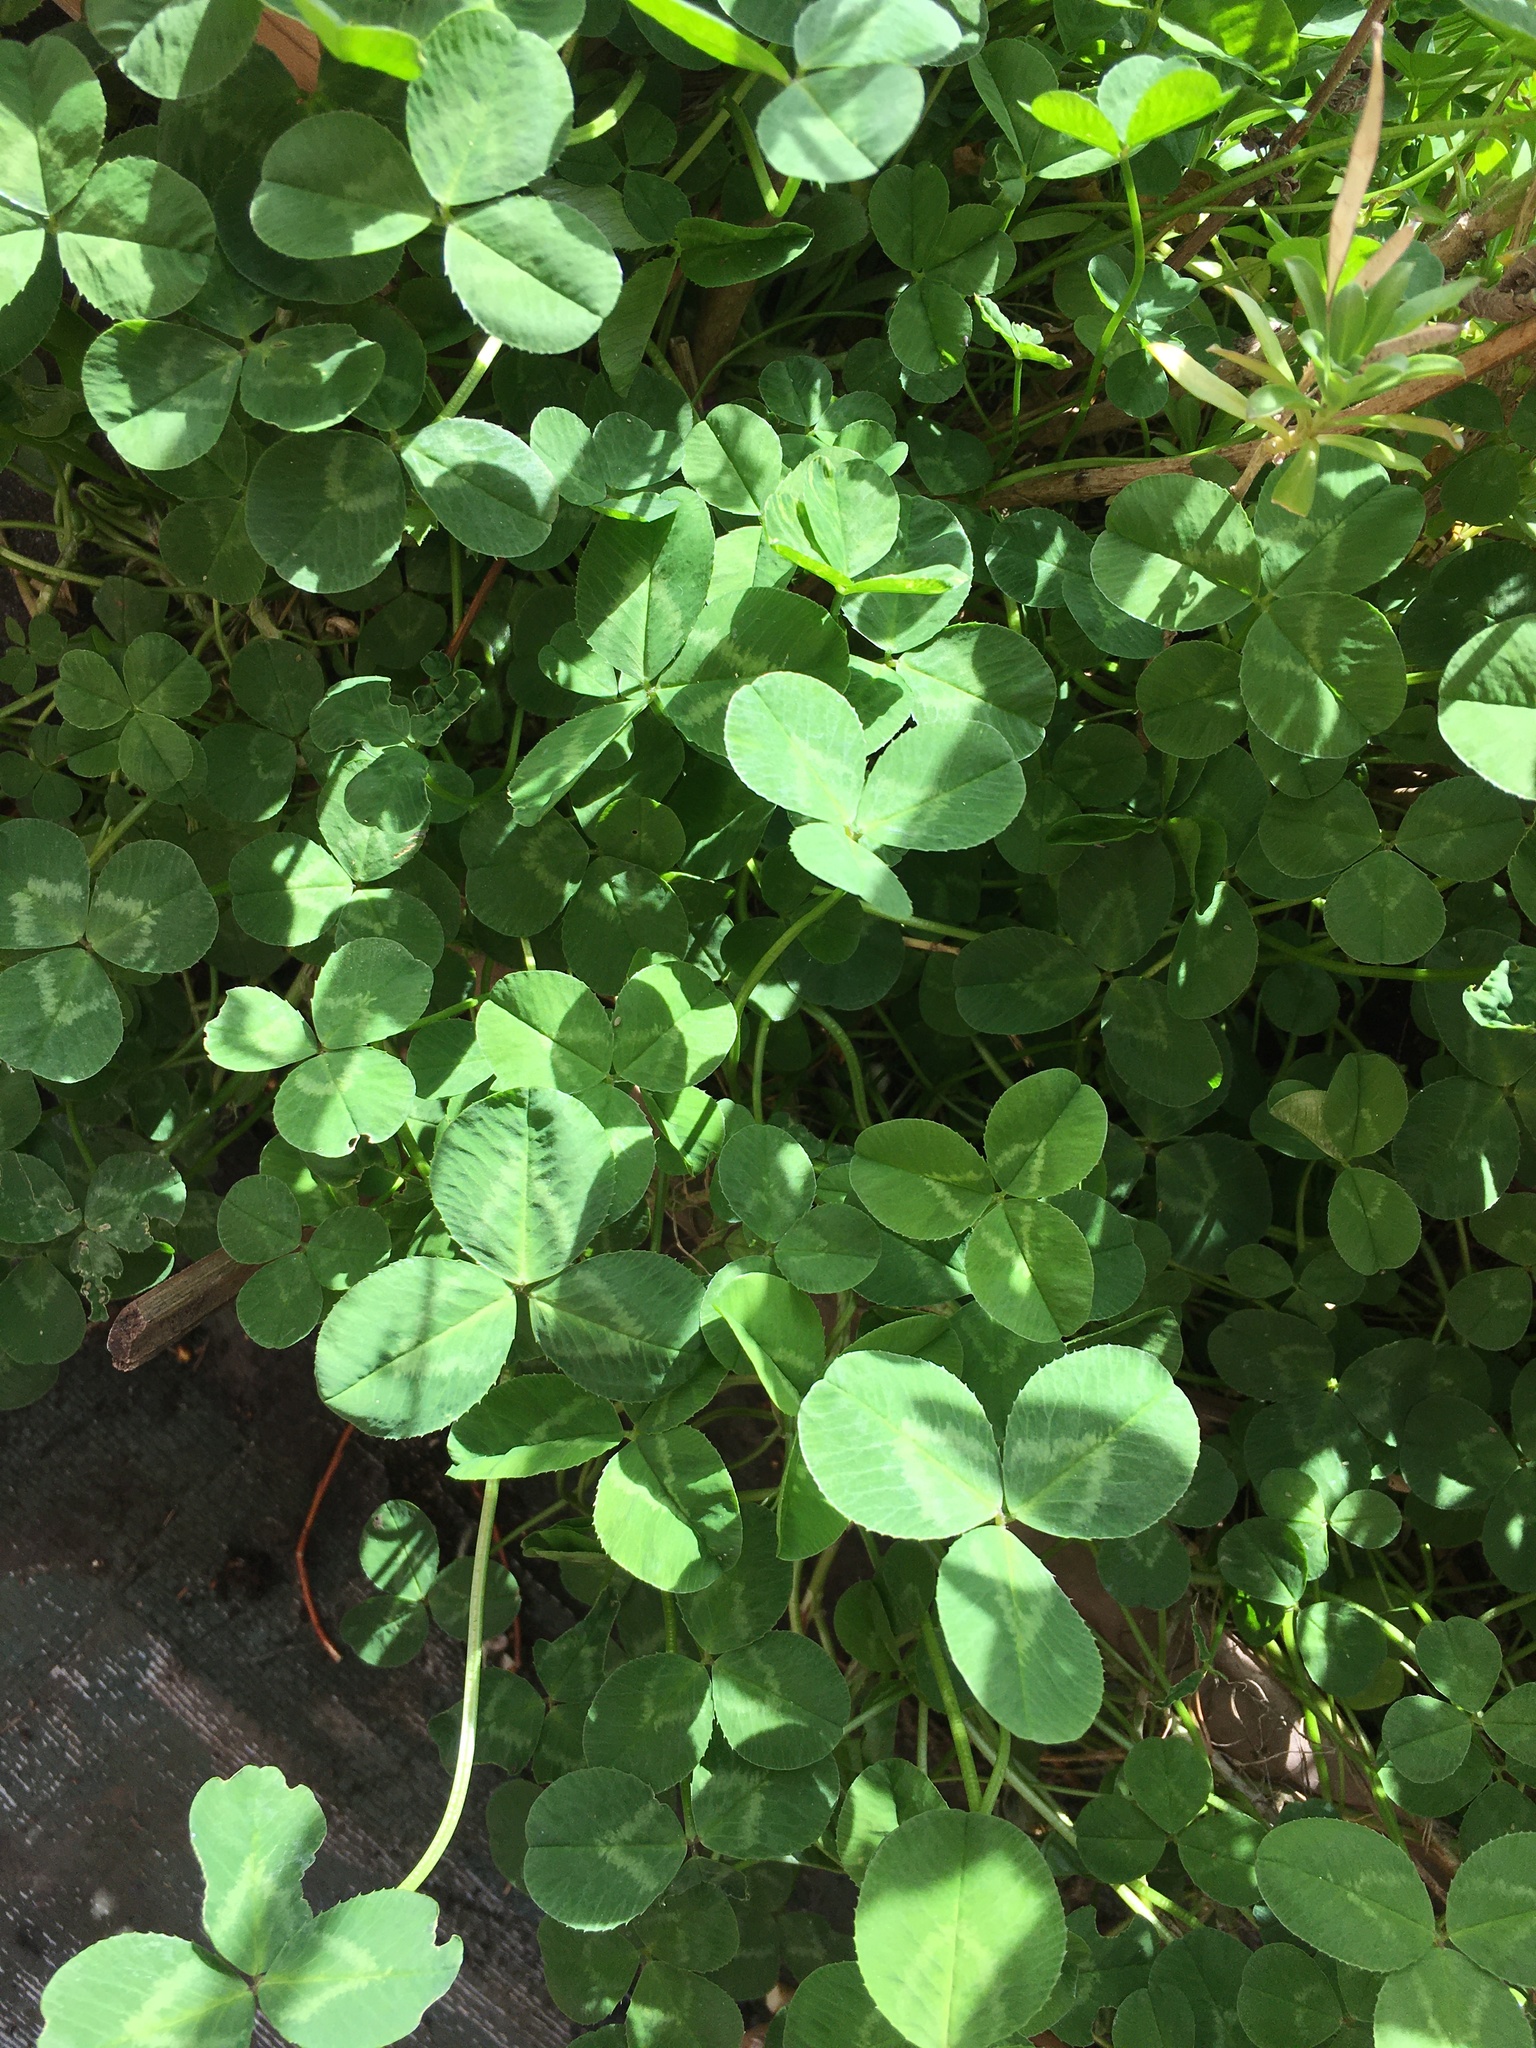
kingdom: Plantae
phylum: Tracheophyta
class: Magnoliopsida
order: Fabales
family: Fabaceae
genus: Trifolium
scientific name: Trifolium repens
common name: White clover
